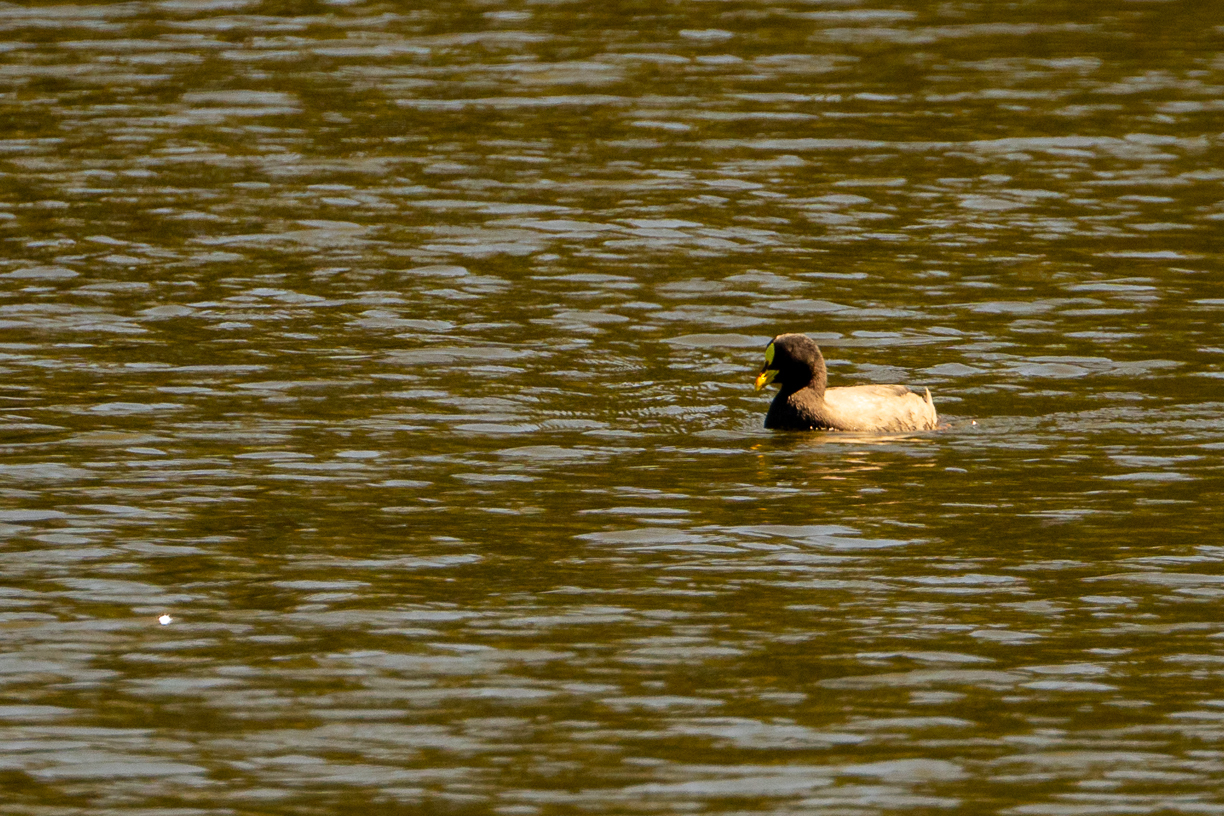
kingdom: Animalia
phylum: Chordata
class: Aves
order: Gruiformes
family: Rallidae
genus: Fulica
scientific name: Fulica armillata
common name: Red-gartered coot
